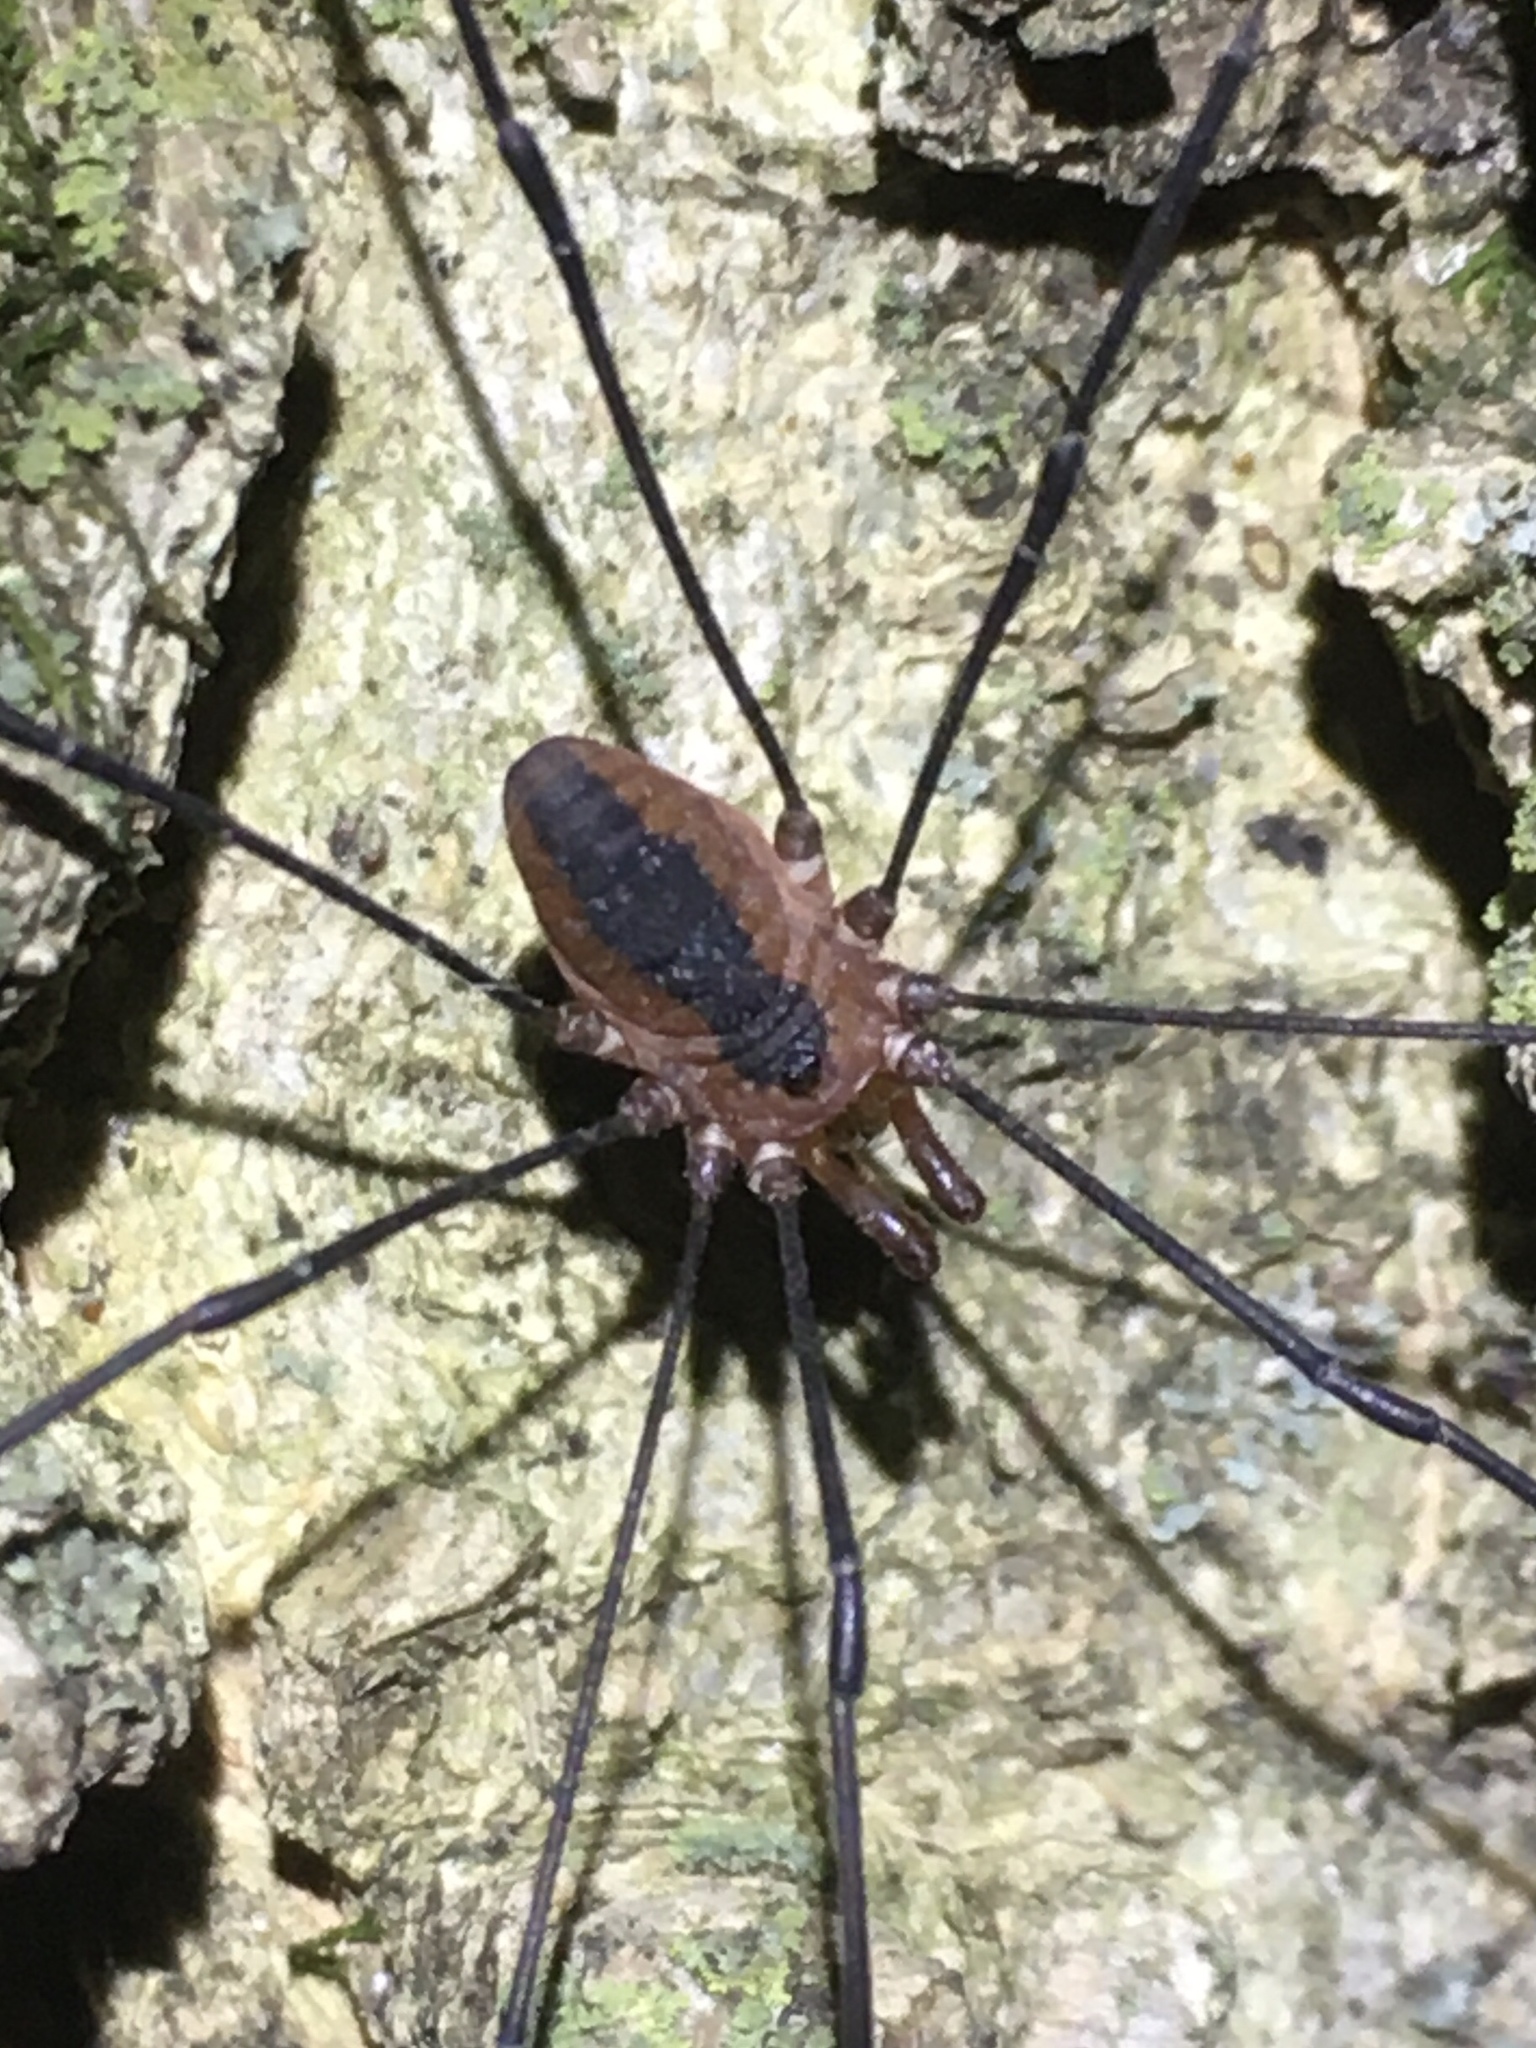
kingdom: Animalia
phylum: Arthropoda
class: Arachnida
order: Opiliones
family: Sclerosomatidae
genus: Leiobunum
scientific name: Leiobunum vittatum
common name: Eastern harvestman
